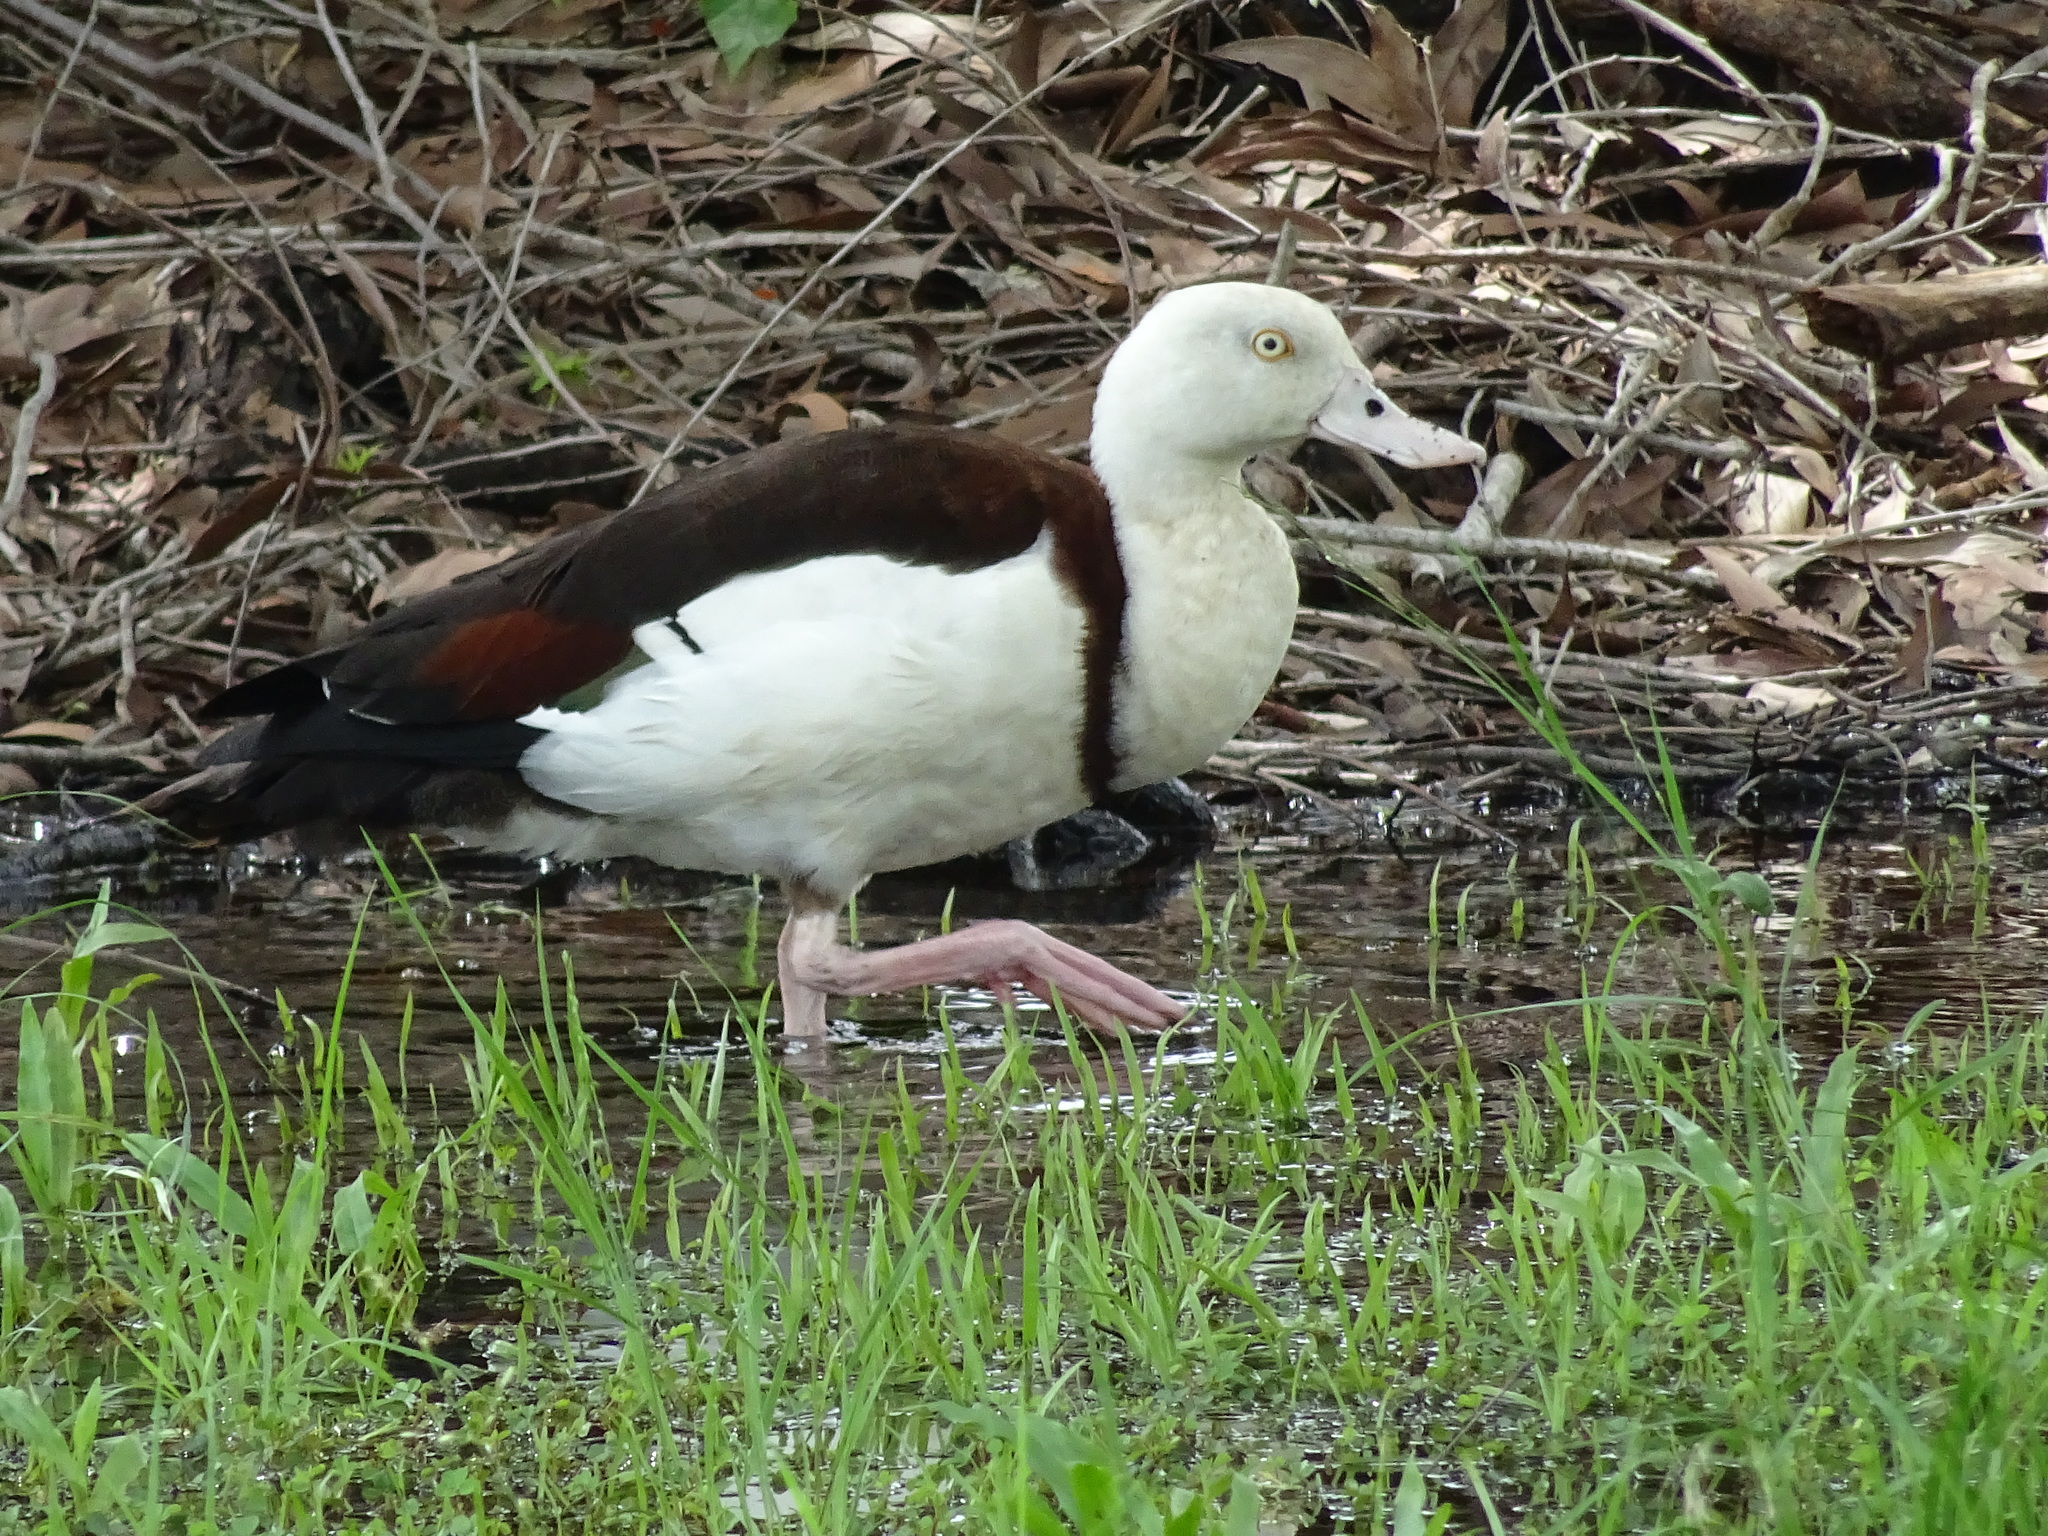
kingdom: Animalia
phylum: Chordata
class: Aves
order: Anseriformes
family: Anatidae
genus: Radjah
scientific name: Radjah radjah
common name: Radjah shelduck
